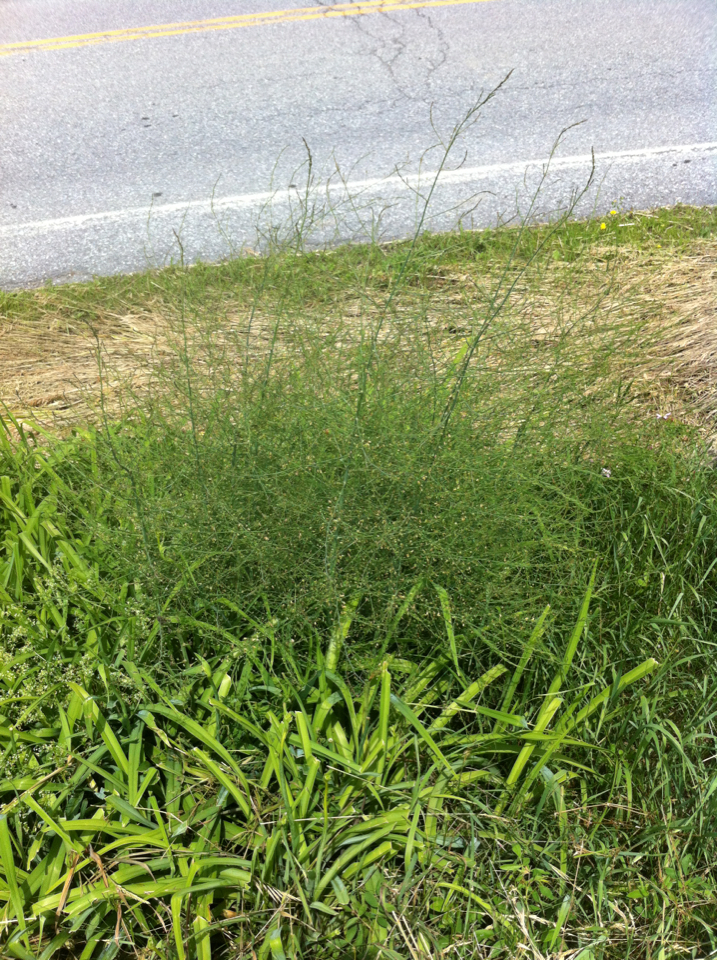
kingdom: Plantae
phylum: Tracheophyta
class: Liliopsida
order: Asparagales
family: Asparagaceae
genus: Asparagus
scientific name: Asparagus officinalis
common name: Garden asparagus
